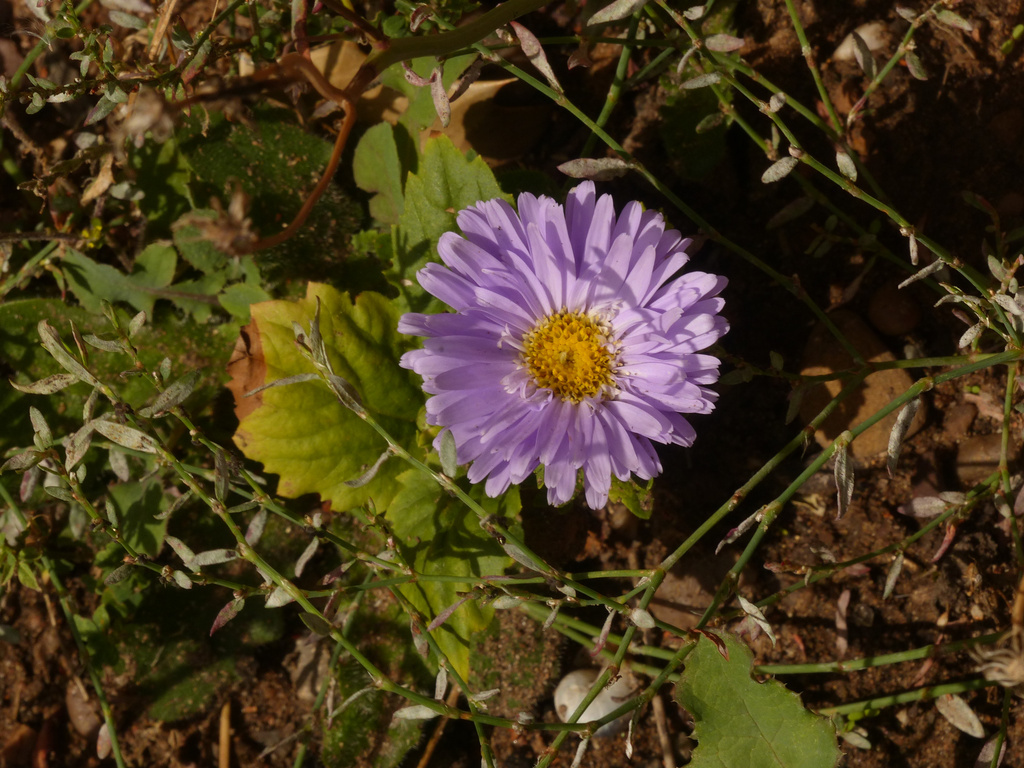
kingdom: Plantae
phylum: Tracheophyta
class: Magnoliopsida
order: Asterales
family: Asteraceae
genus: Callistephus
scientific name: Callistephus chinensis
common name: China aster
